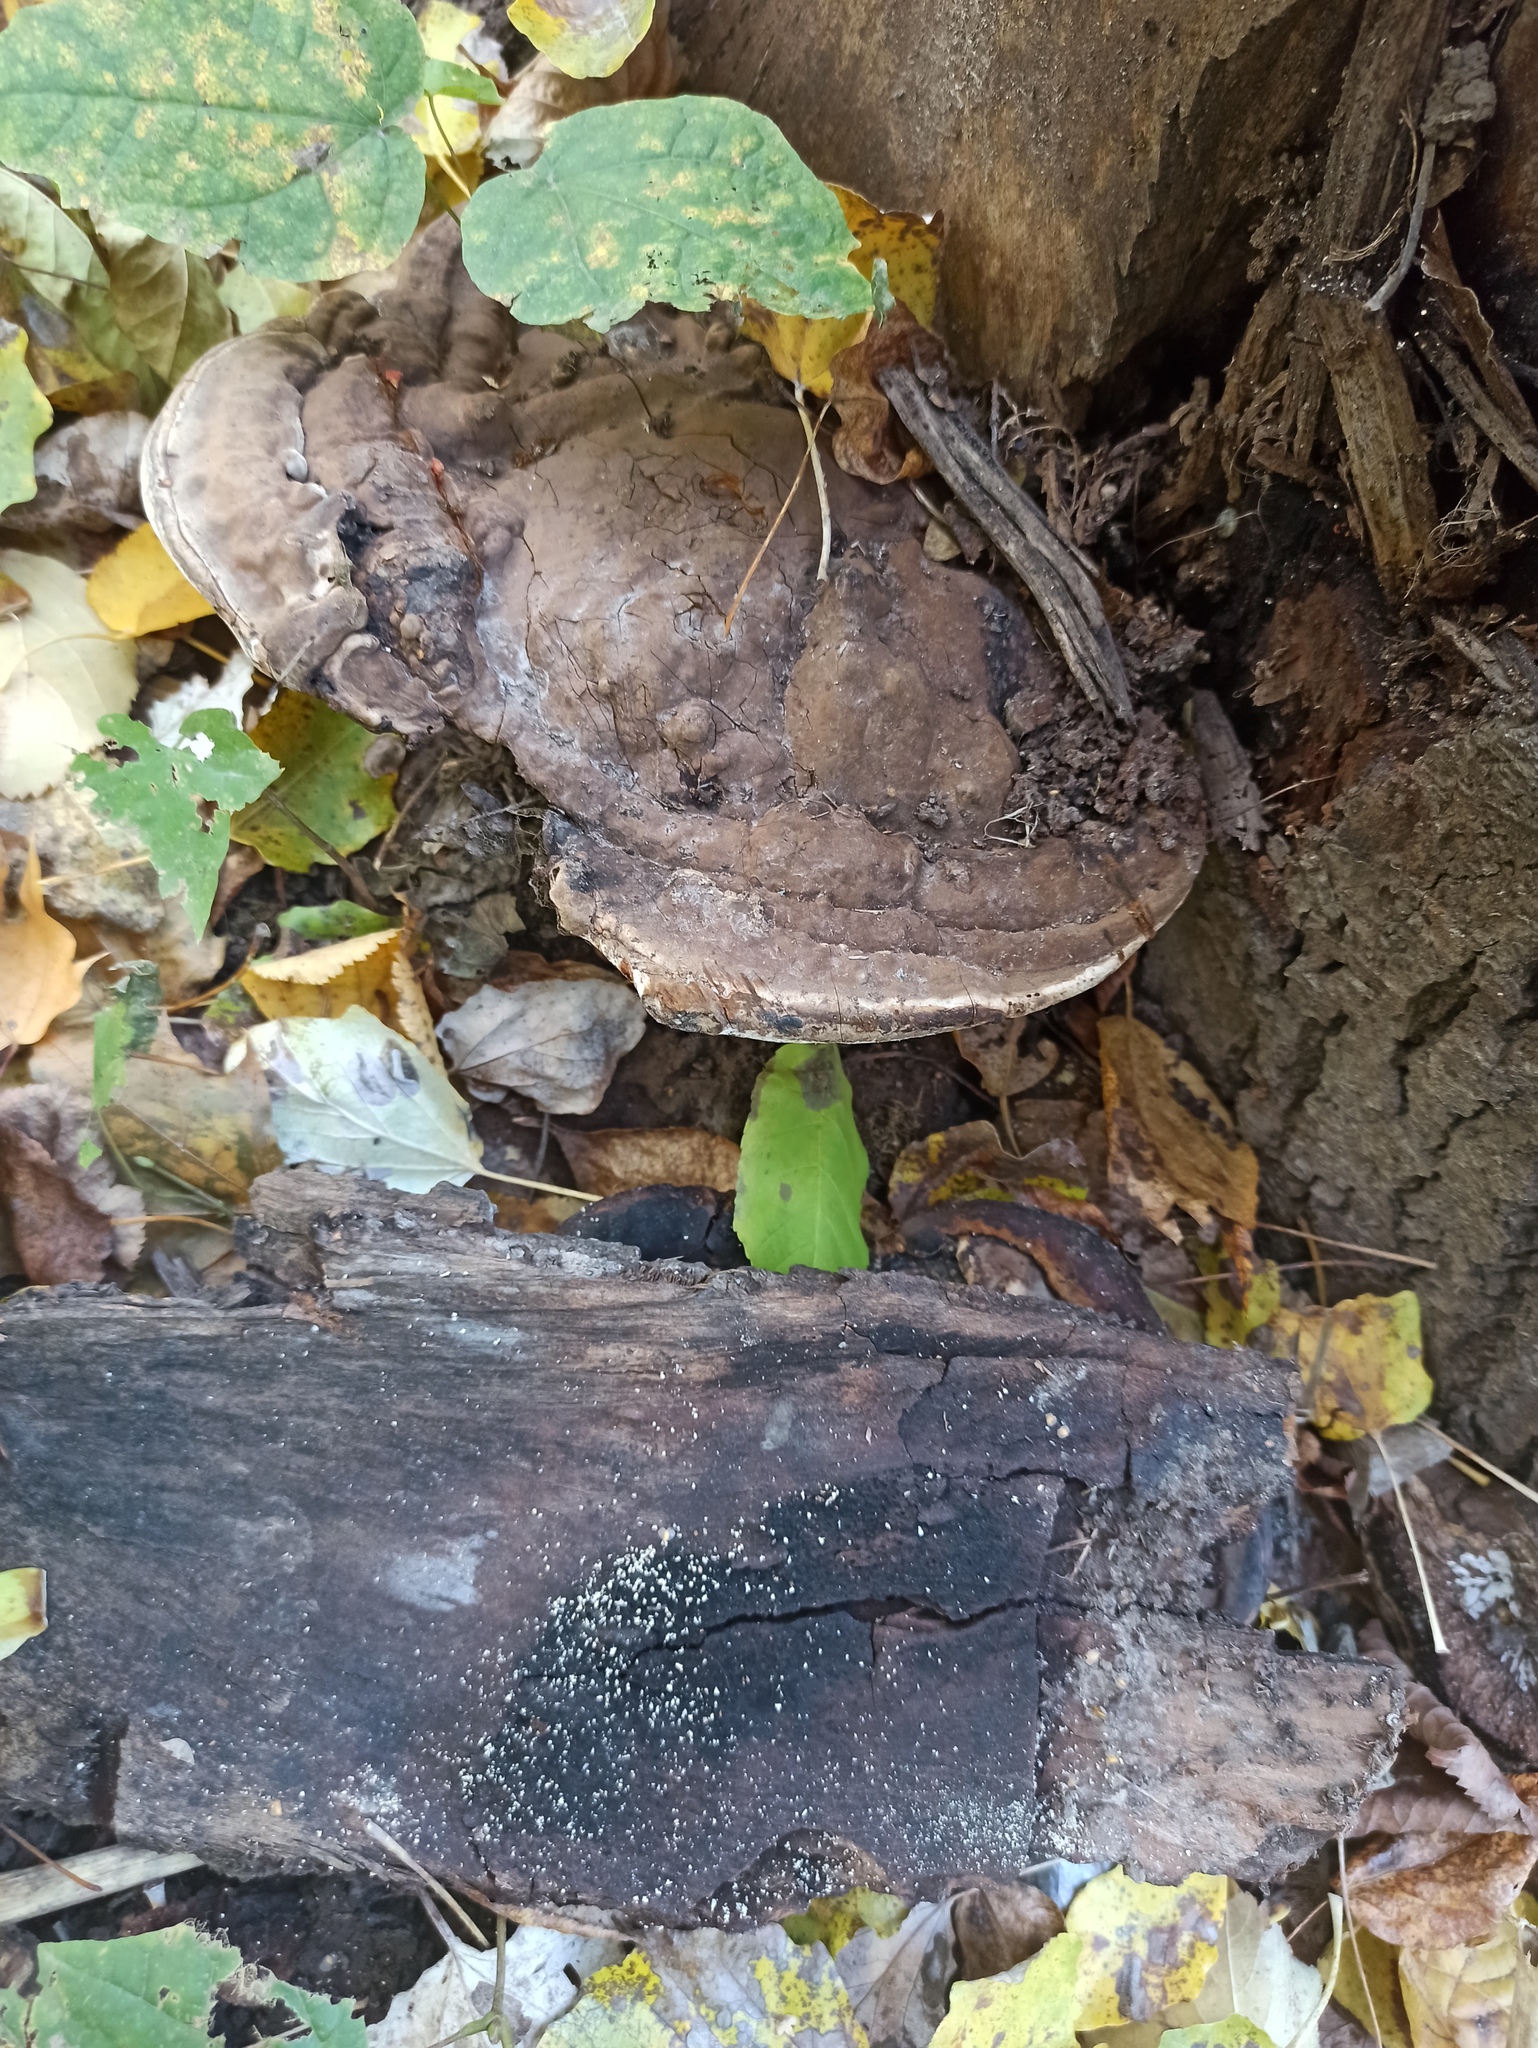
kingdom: Fungi
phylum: Basidiomycota
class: Agaricomycetes
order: Polyporales
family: Polyporaceae
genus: Ganoderma
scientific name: Ganoderma applanatum
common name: Artist's bracket
